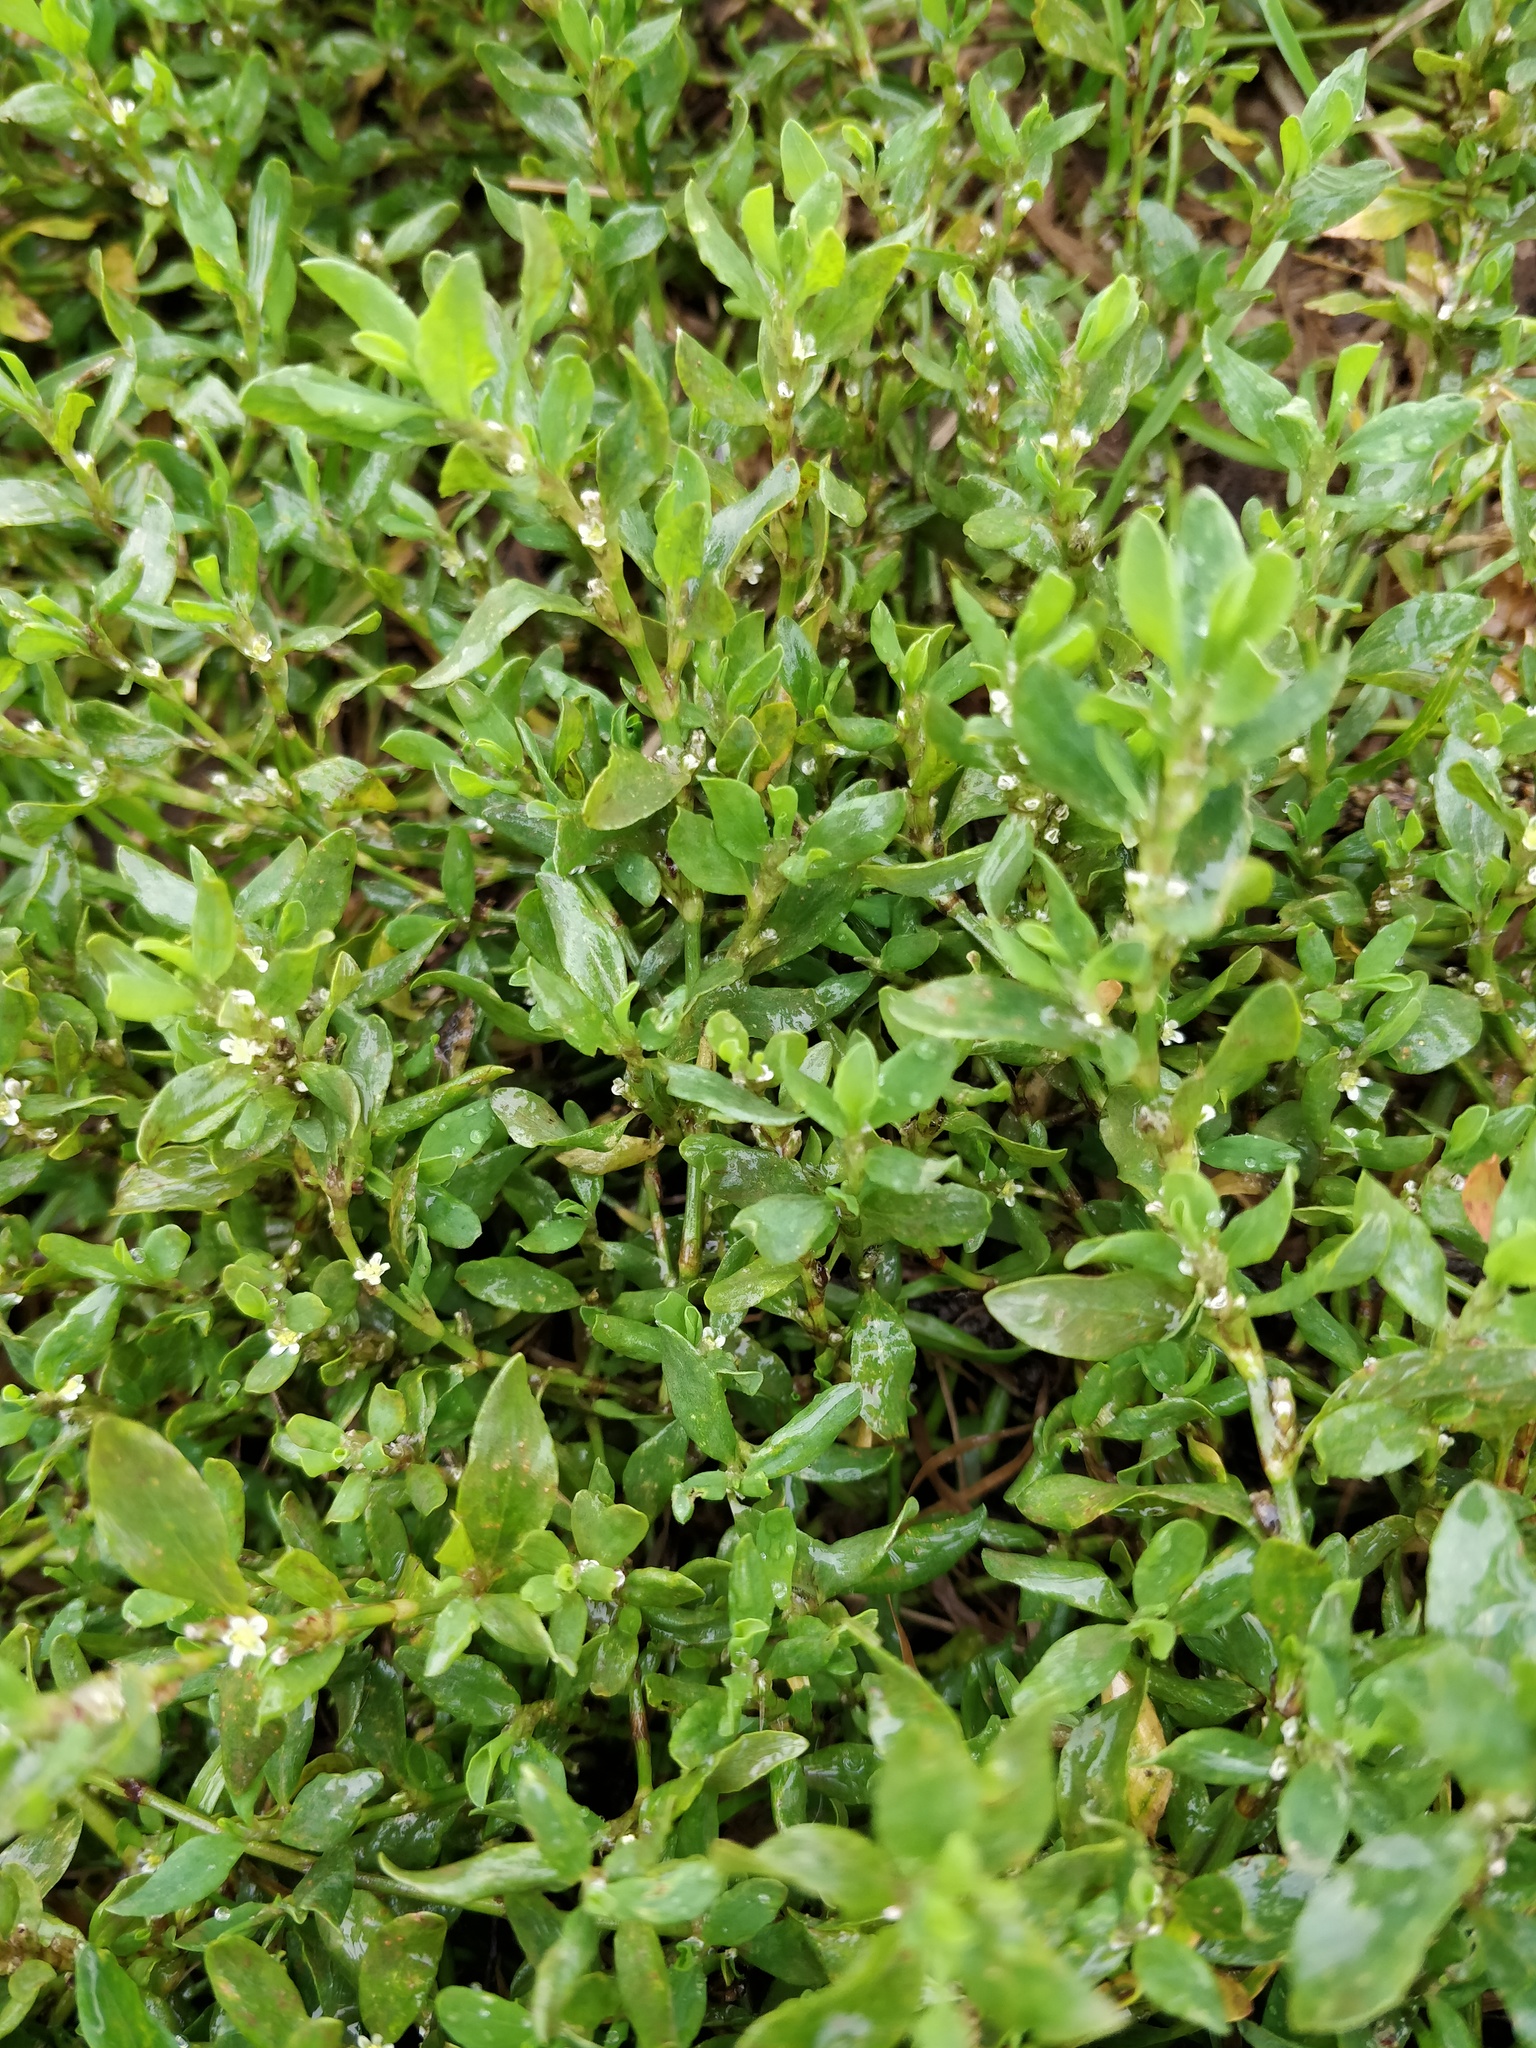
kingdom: Plantae
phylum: Tracheophyta
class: Magnoliopsida
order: Caryophyllales
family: Polygonaceae
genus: Polygonum
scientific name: Polygonum
